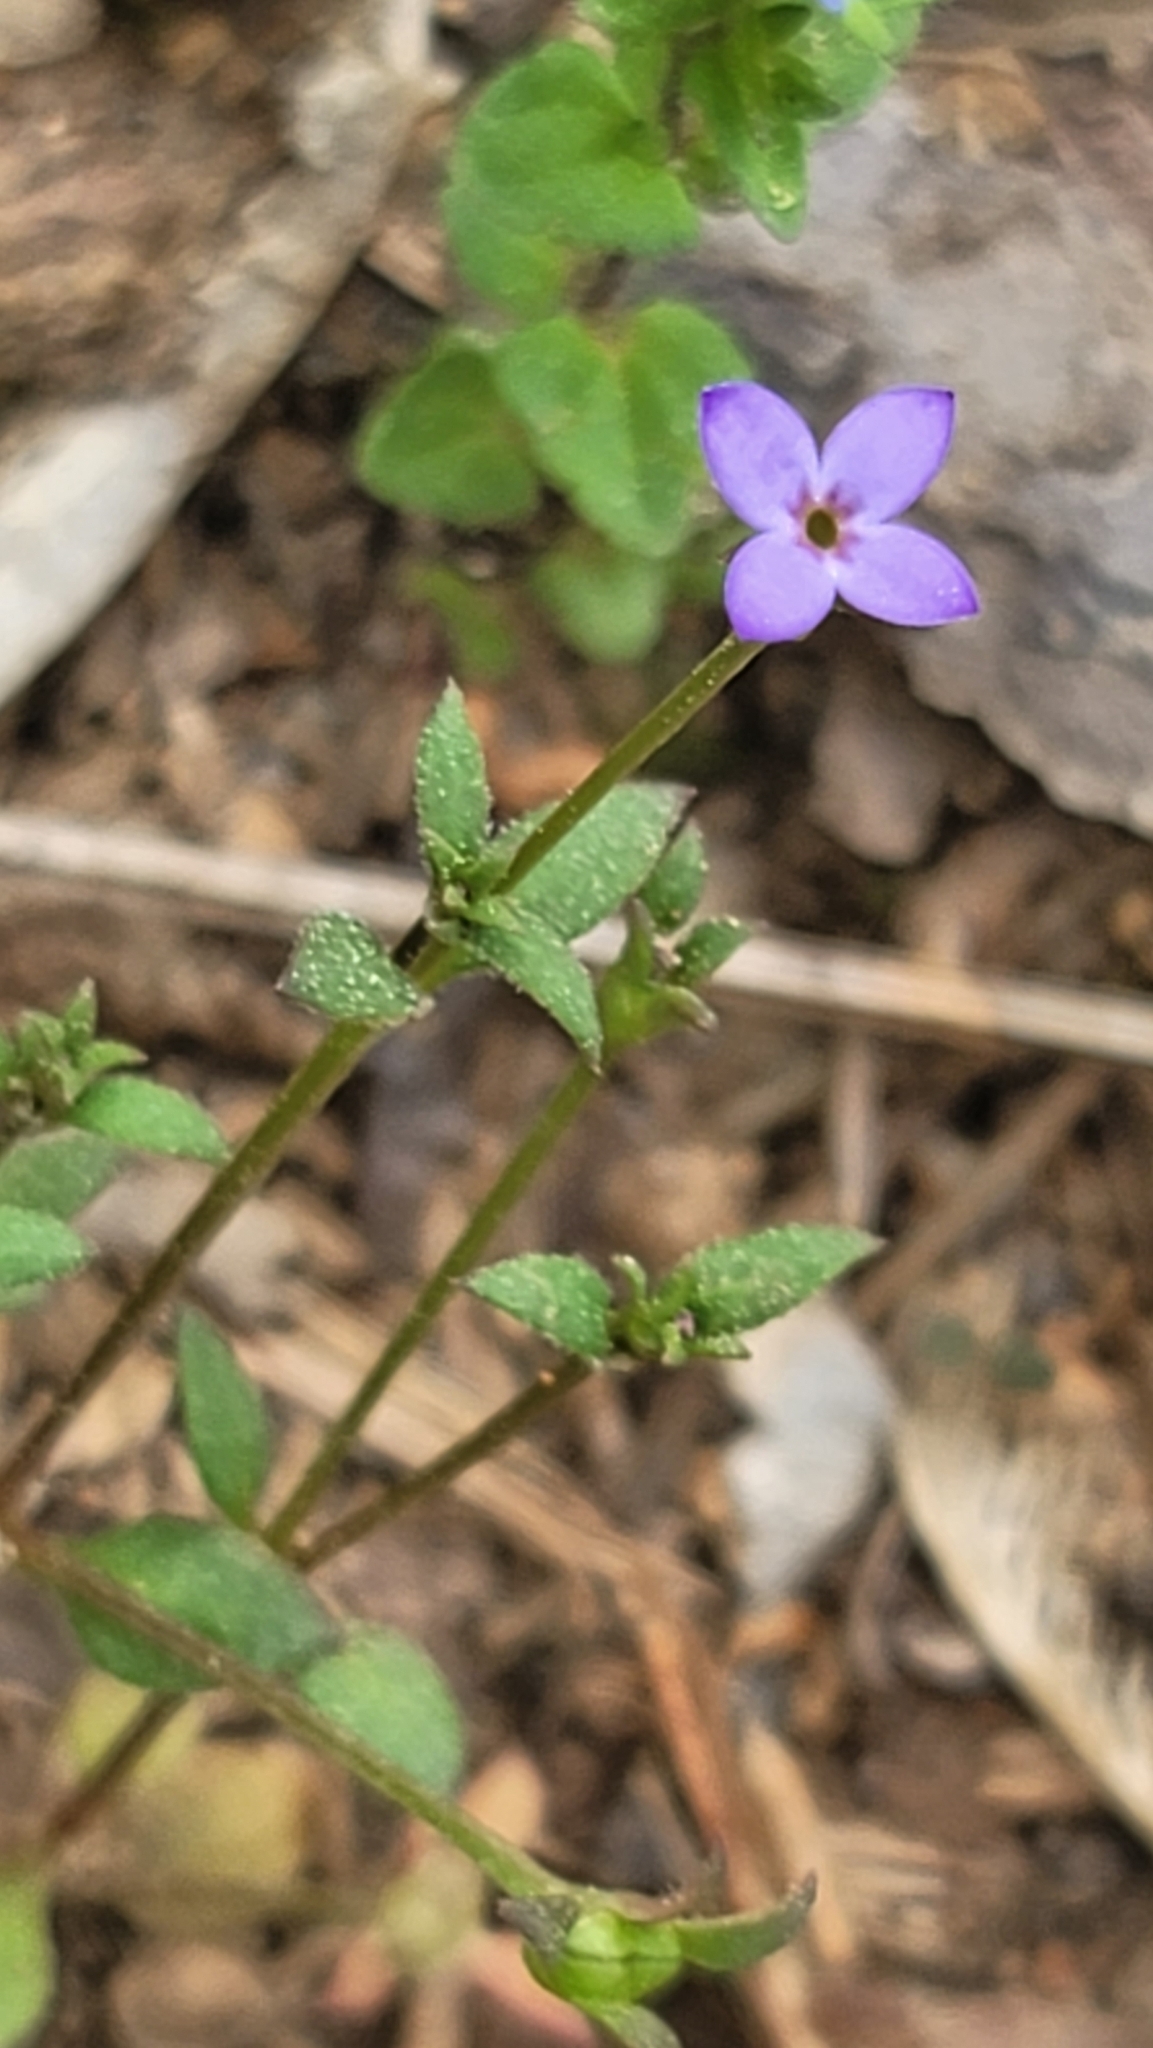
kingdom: Plantae
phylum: Tracheophyta
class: Magnoliopsida
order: Gentianales
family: Rubiaceae
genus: Houstonia
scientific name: Houstonia pusilla
